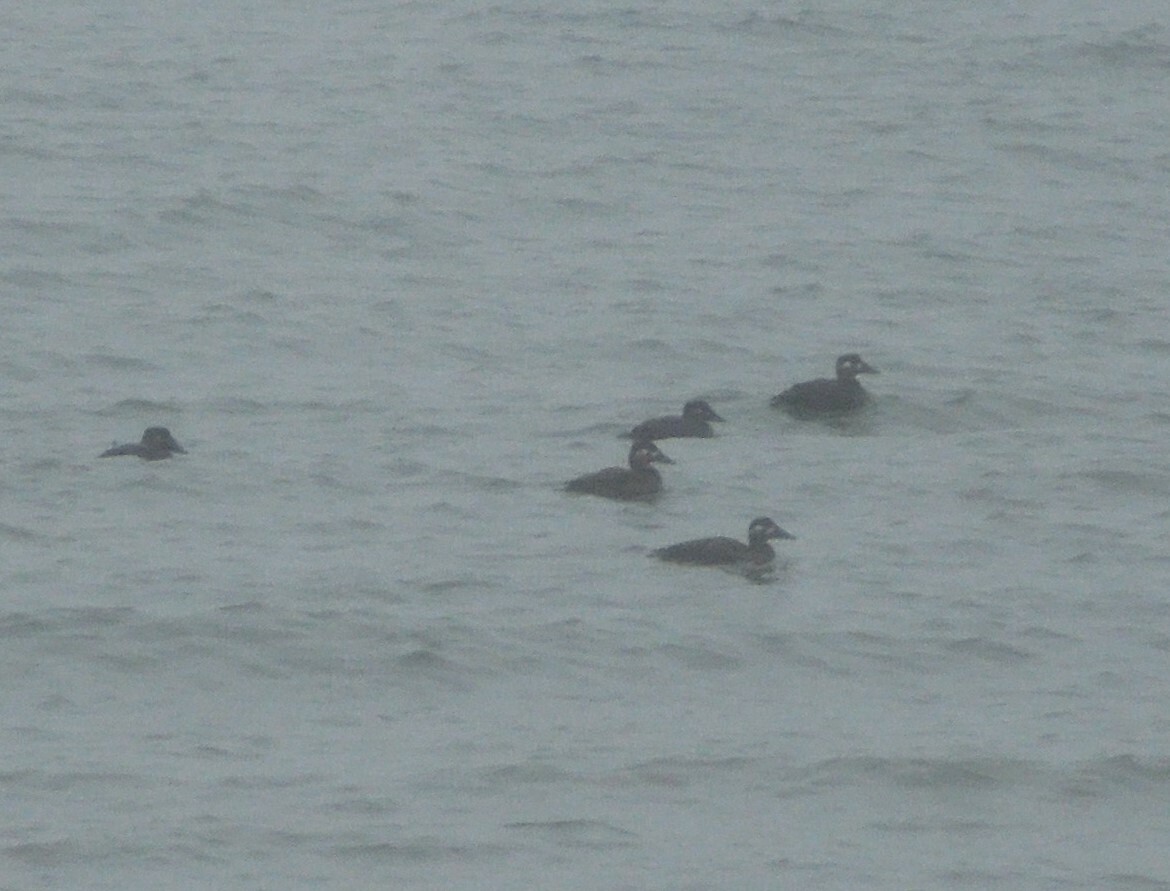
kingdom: Animalia
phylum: Chordata
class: Aves
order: Anseriformes
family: Anatidae
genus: Melanitta
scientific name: Melanitta perspicillata
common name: Surf scoter
